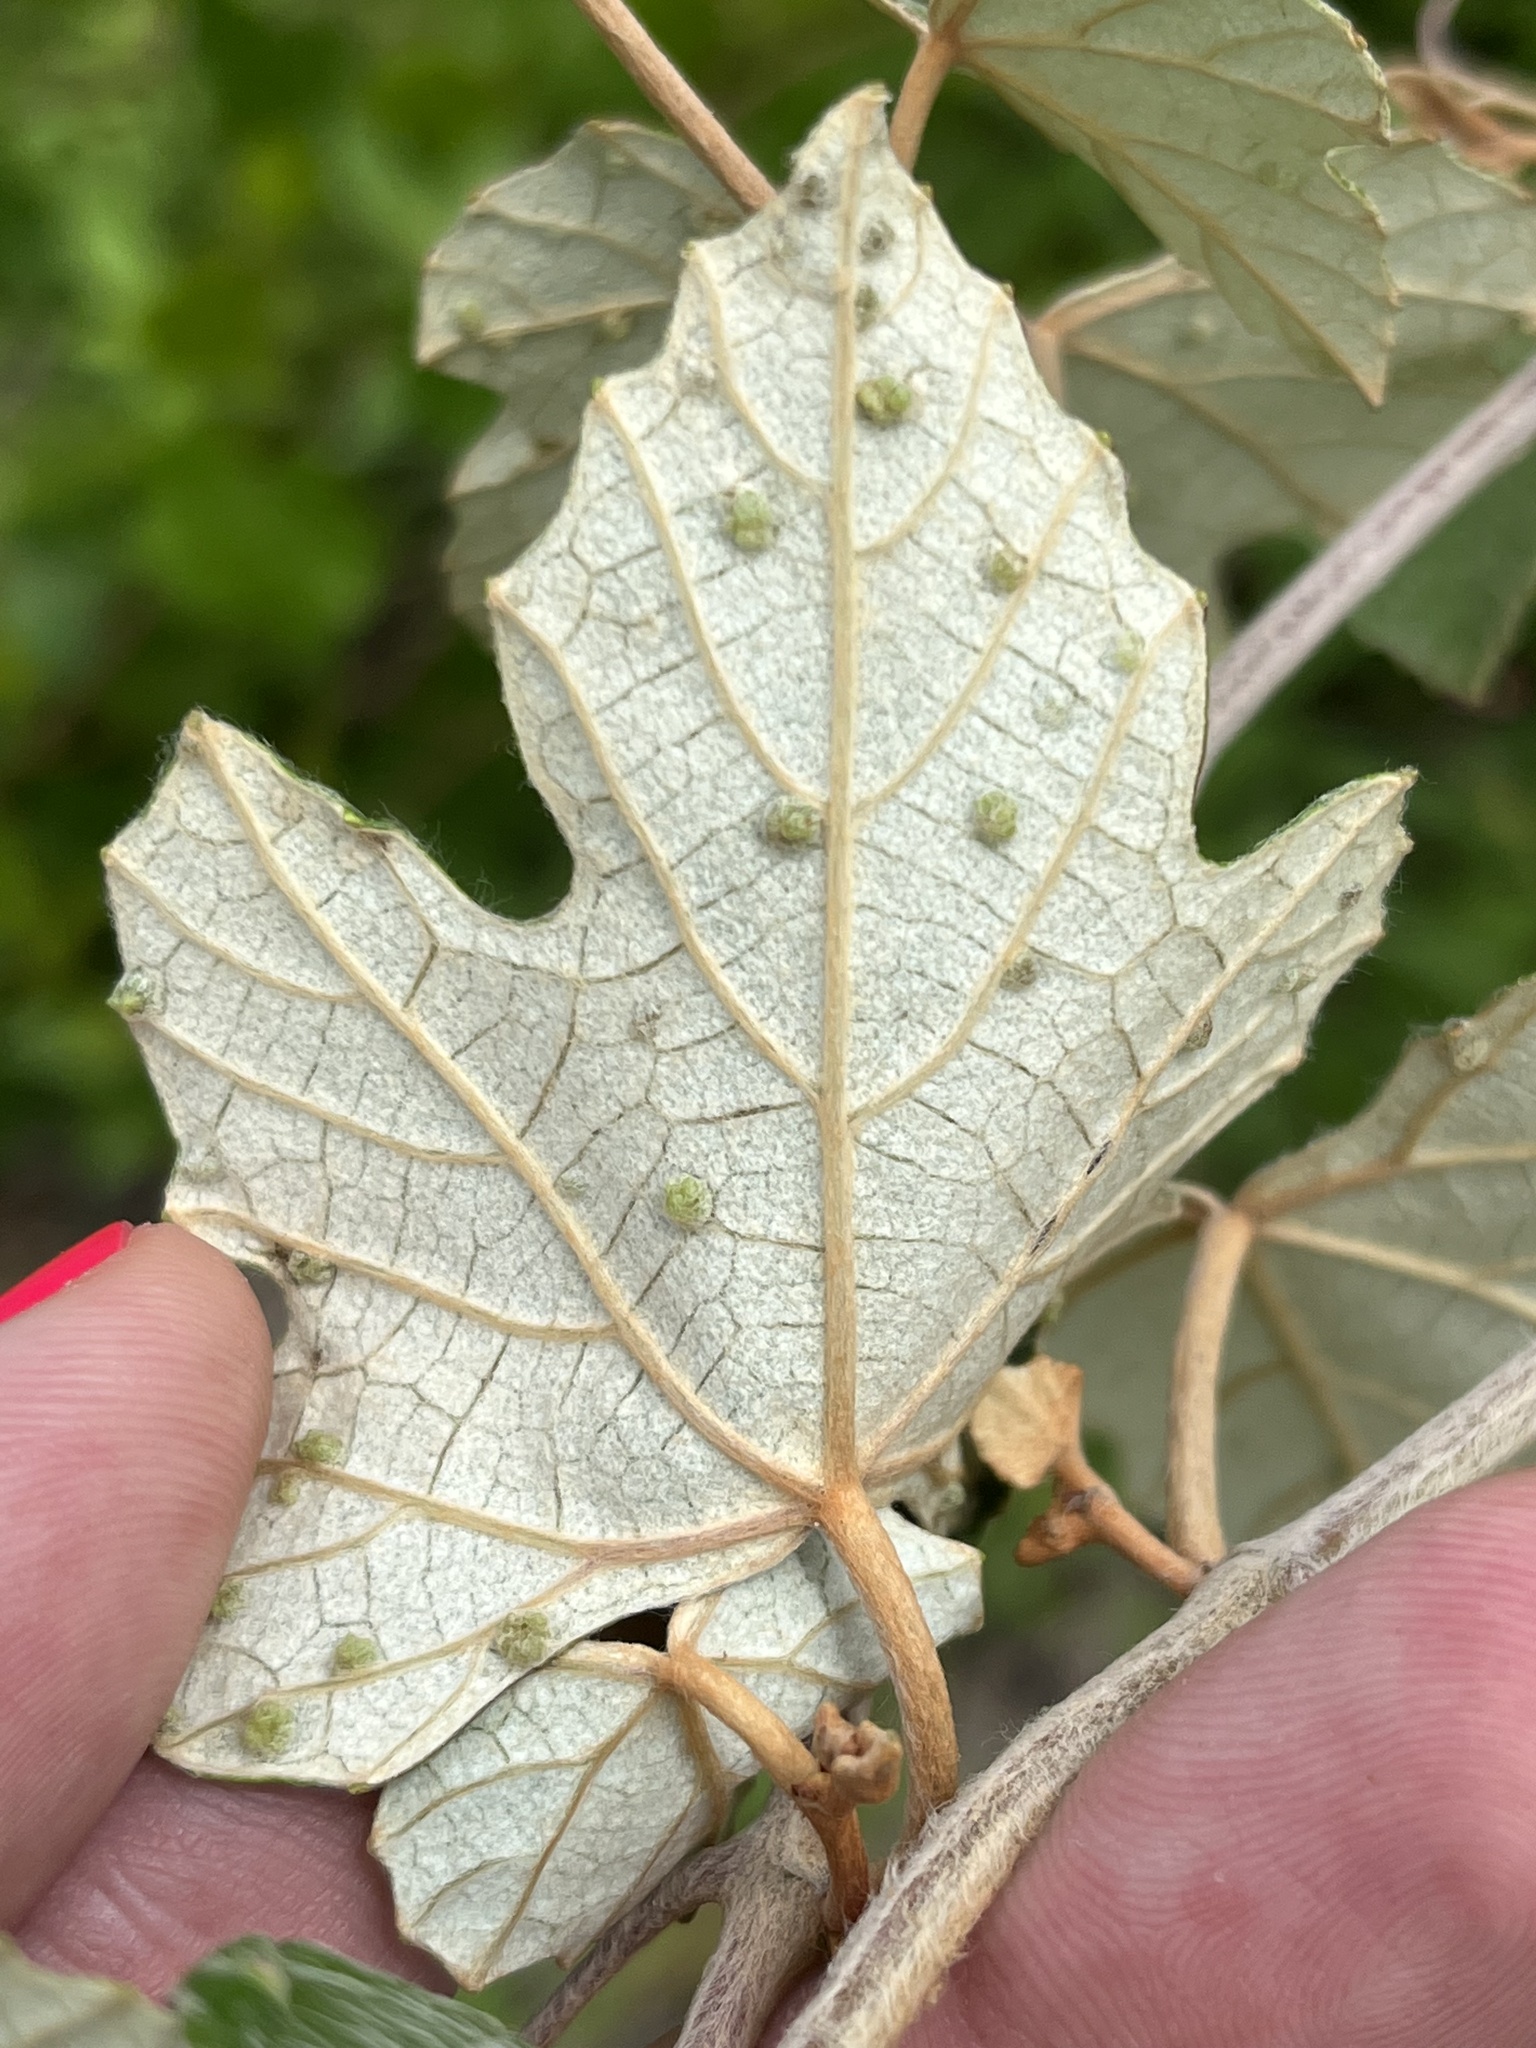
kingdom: Plantae
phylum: Tracheophyta
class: Magnoliopsida
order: Vitales
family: Vitaceae
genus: Vitis
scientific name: Vitis shuttleworthii
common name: Caloosa grape
